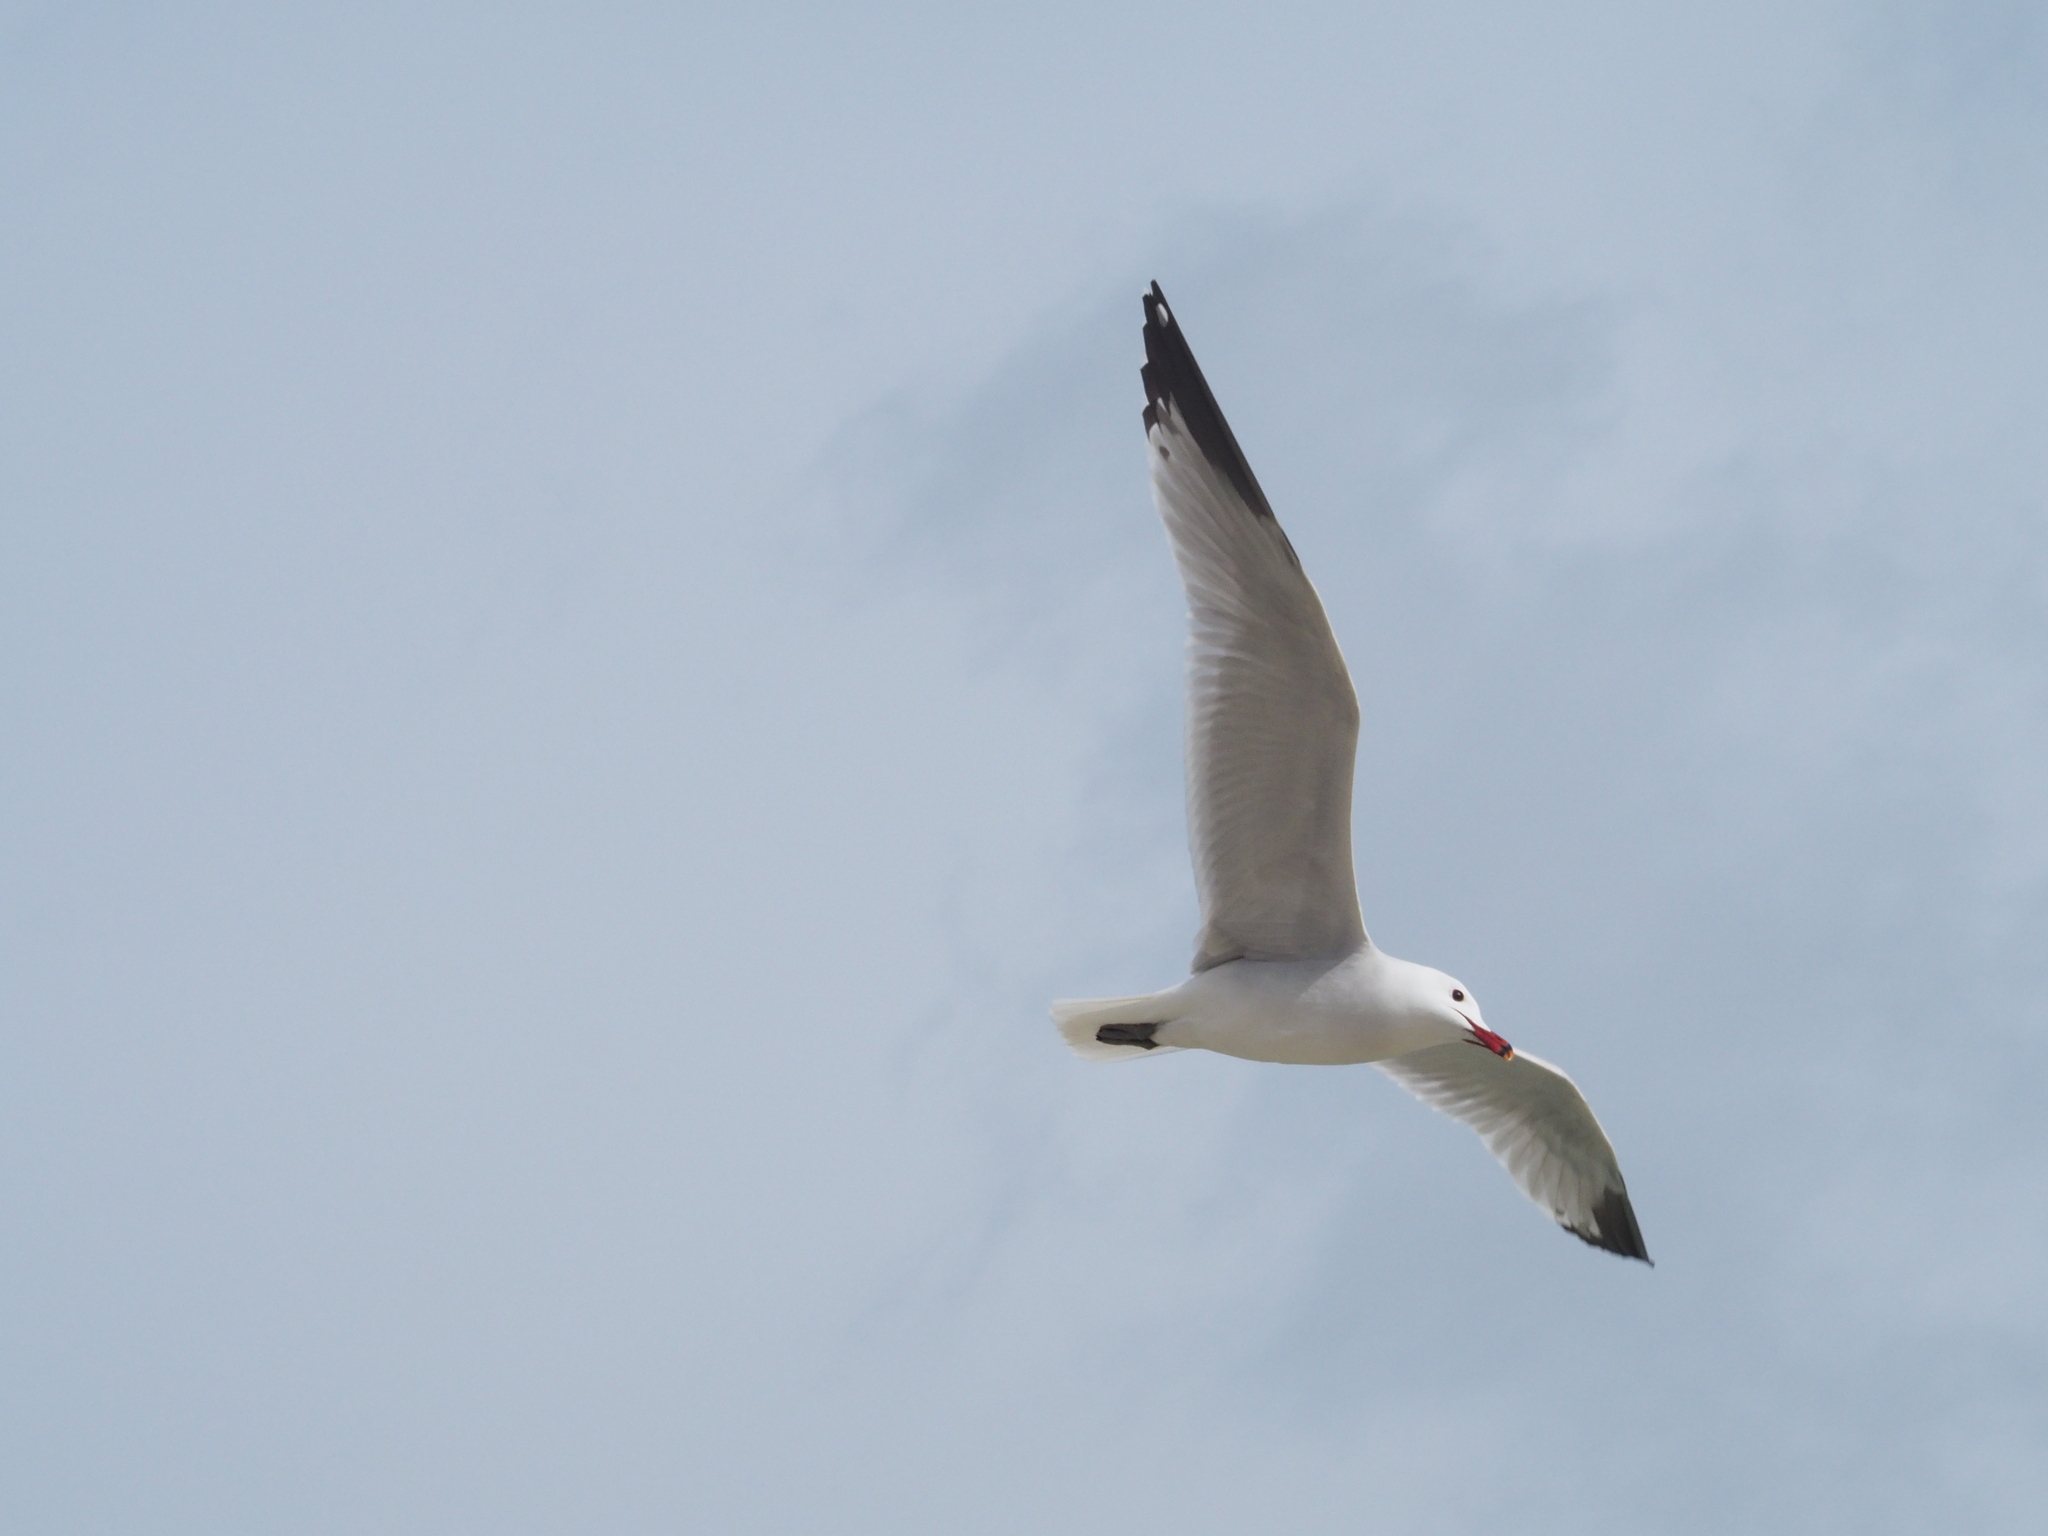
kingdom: Animalia
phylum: Chordata
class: Aves
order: Charadriiformes
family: Laridae
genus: Ichthyaetus
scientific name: Ichthyaetus audouinii
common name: Audouin's gull
